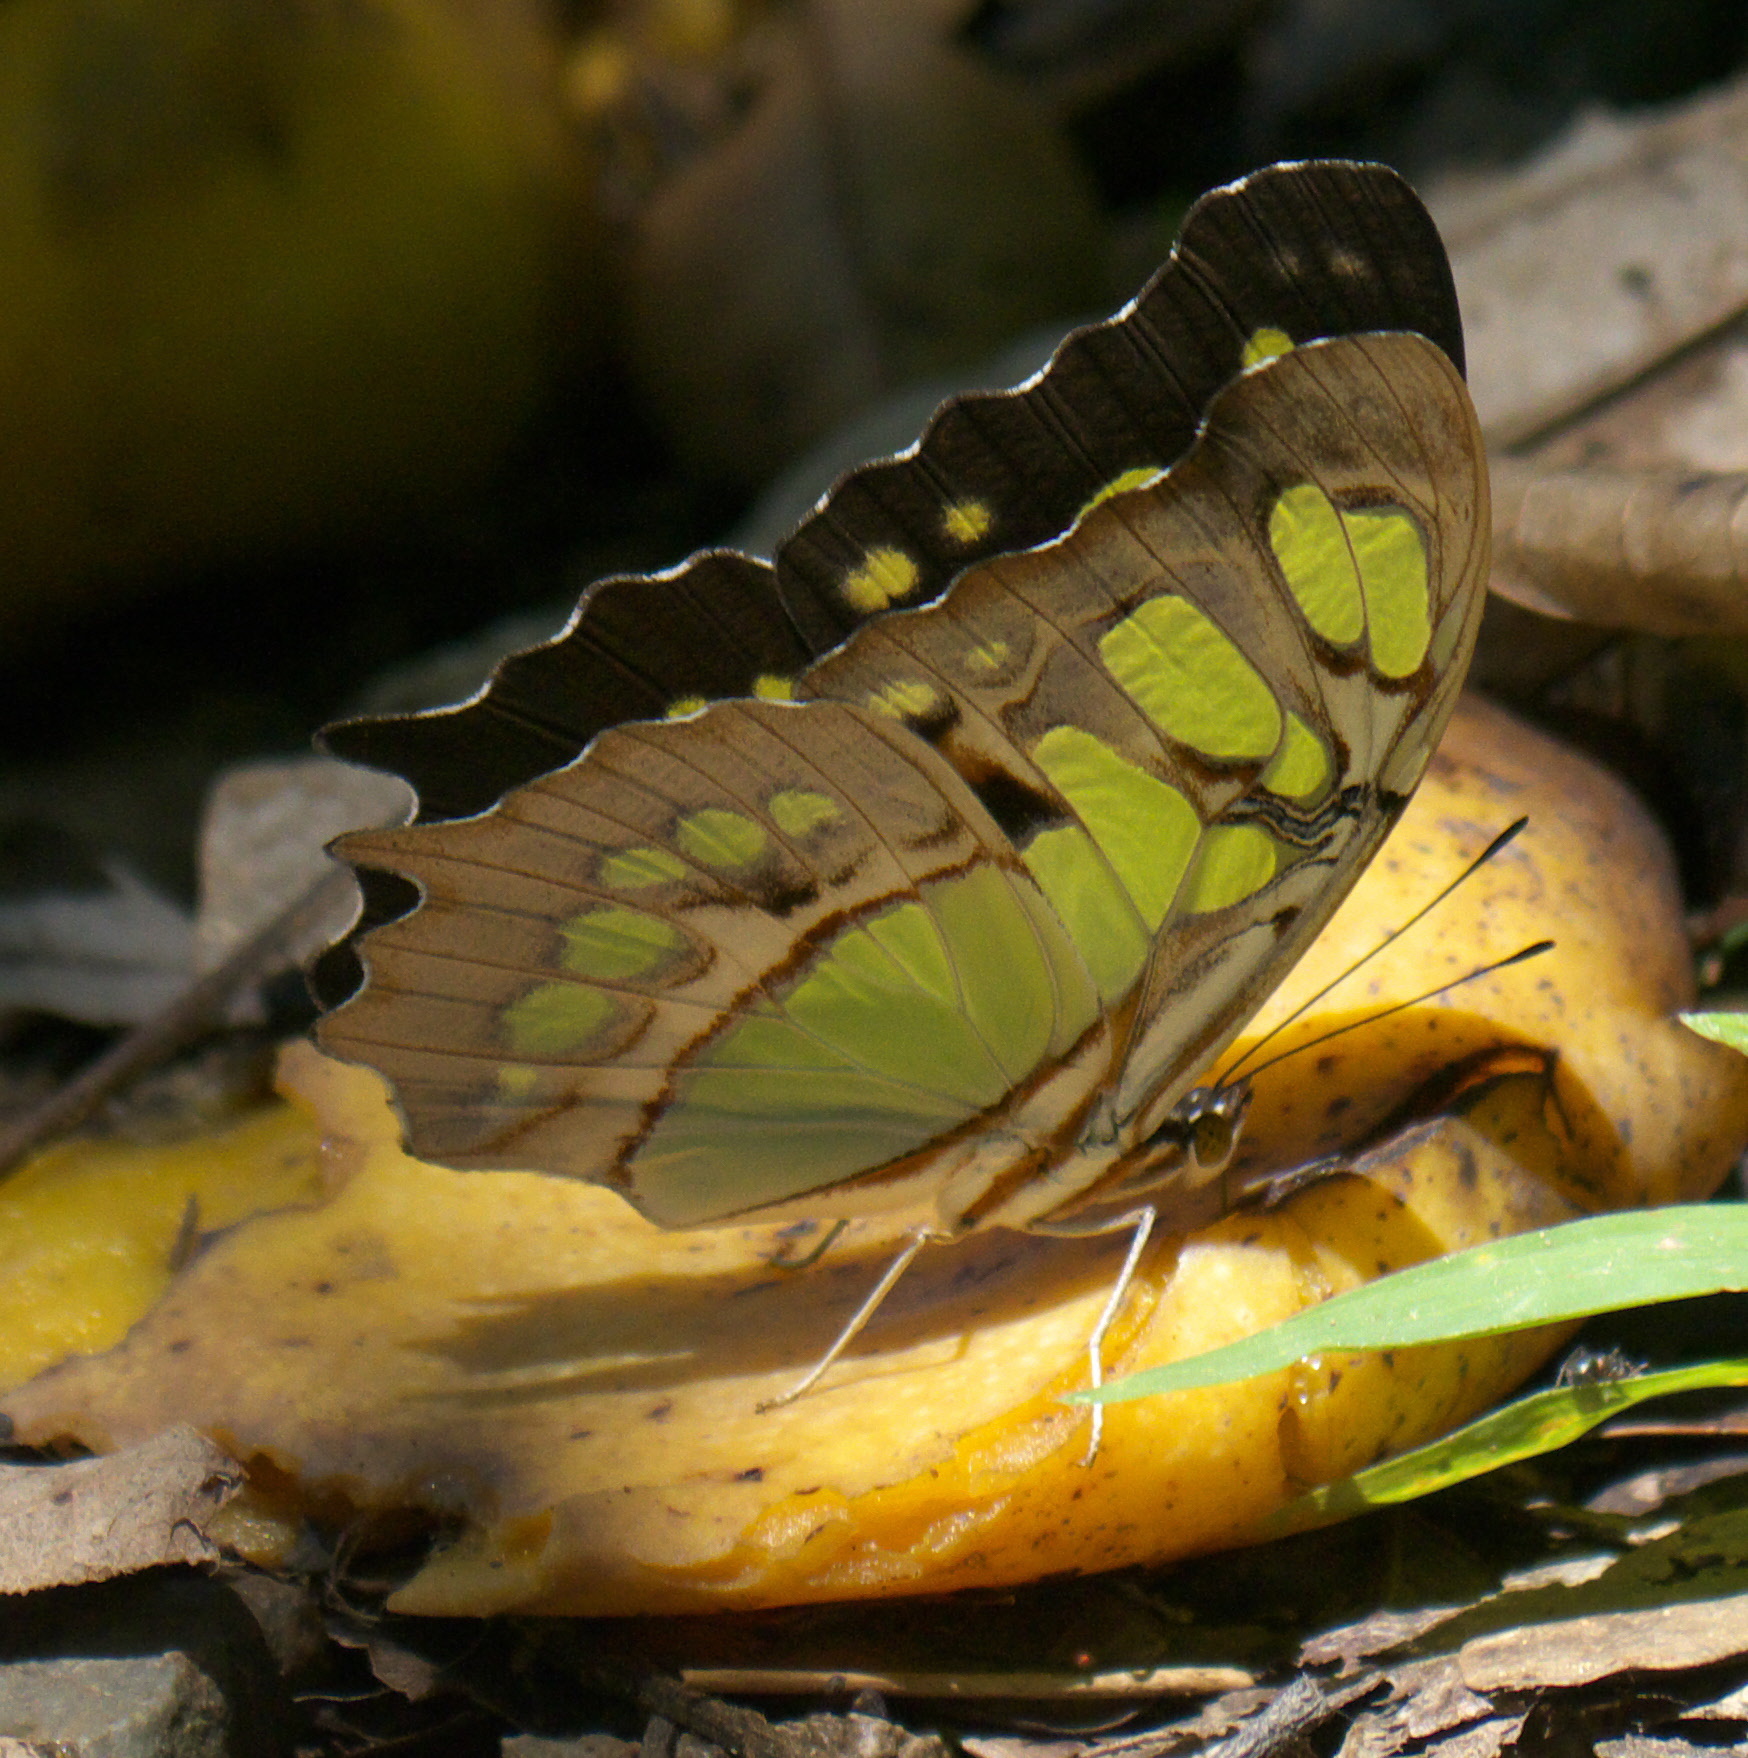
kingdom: Animalia
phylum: Arthropoda
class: Insecta
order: Lepidoptera
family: Nymphalidae
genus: Siproeta
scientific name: Siproeta stelenes
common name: Malachite
